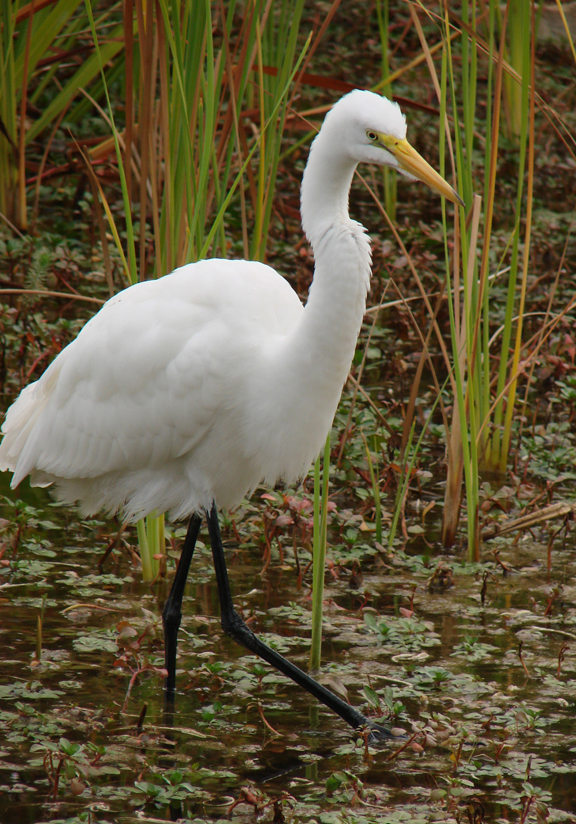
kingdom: Animalia
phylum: Chordata
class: Aves
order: Pelecaniformes
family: Ardeidae
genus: Ardea
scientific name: Ardea alba
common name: Great egret
